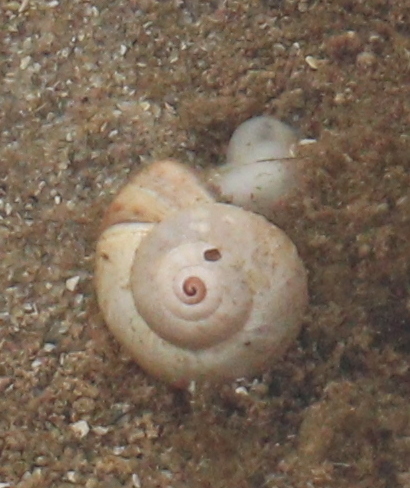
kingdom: Animalia
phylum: Mollusca
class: Gastropoda
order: Stylommatophora
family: Helicidae
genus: Theba
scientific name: Theba pisana
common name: White snail
